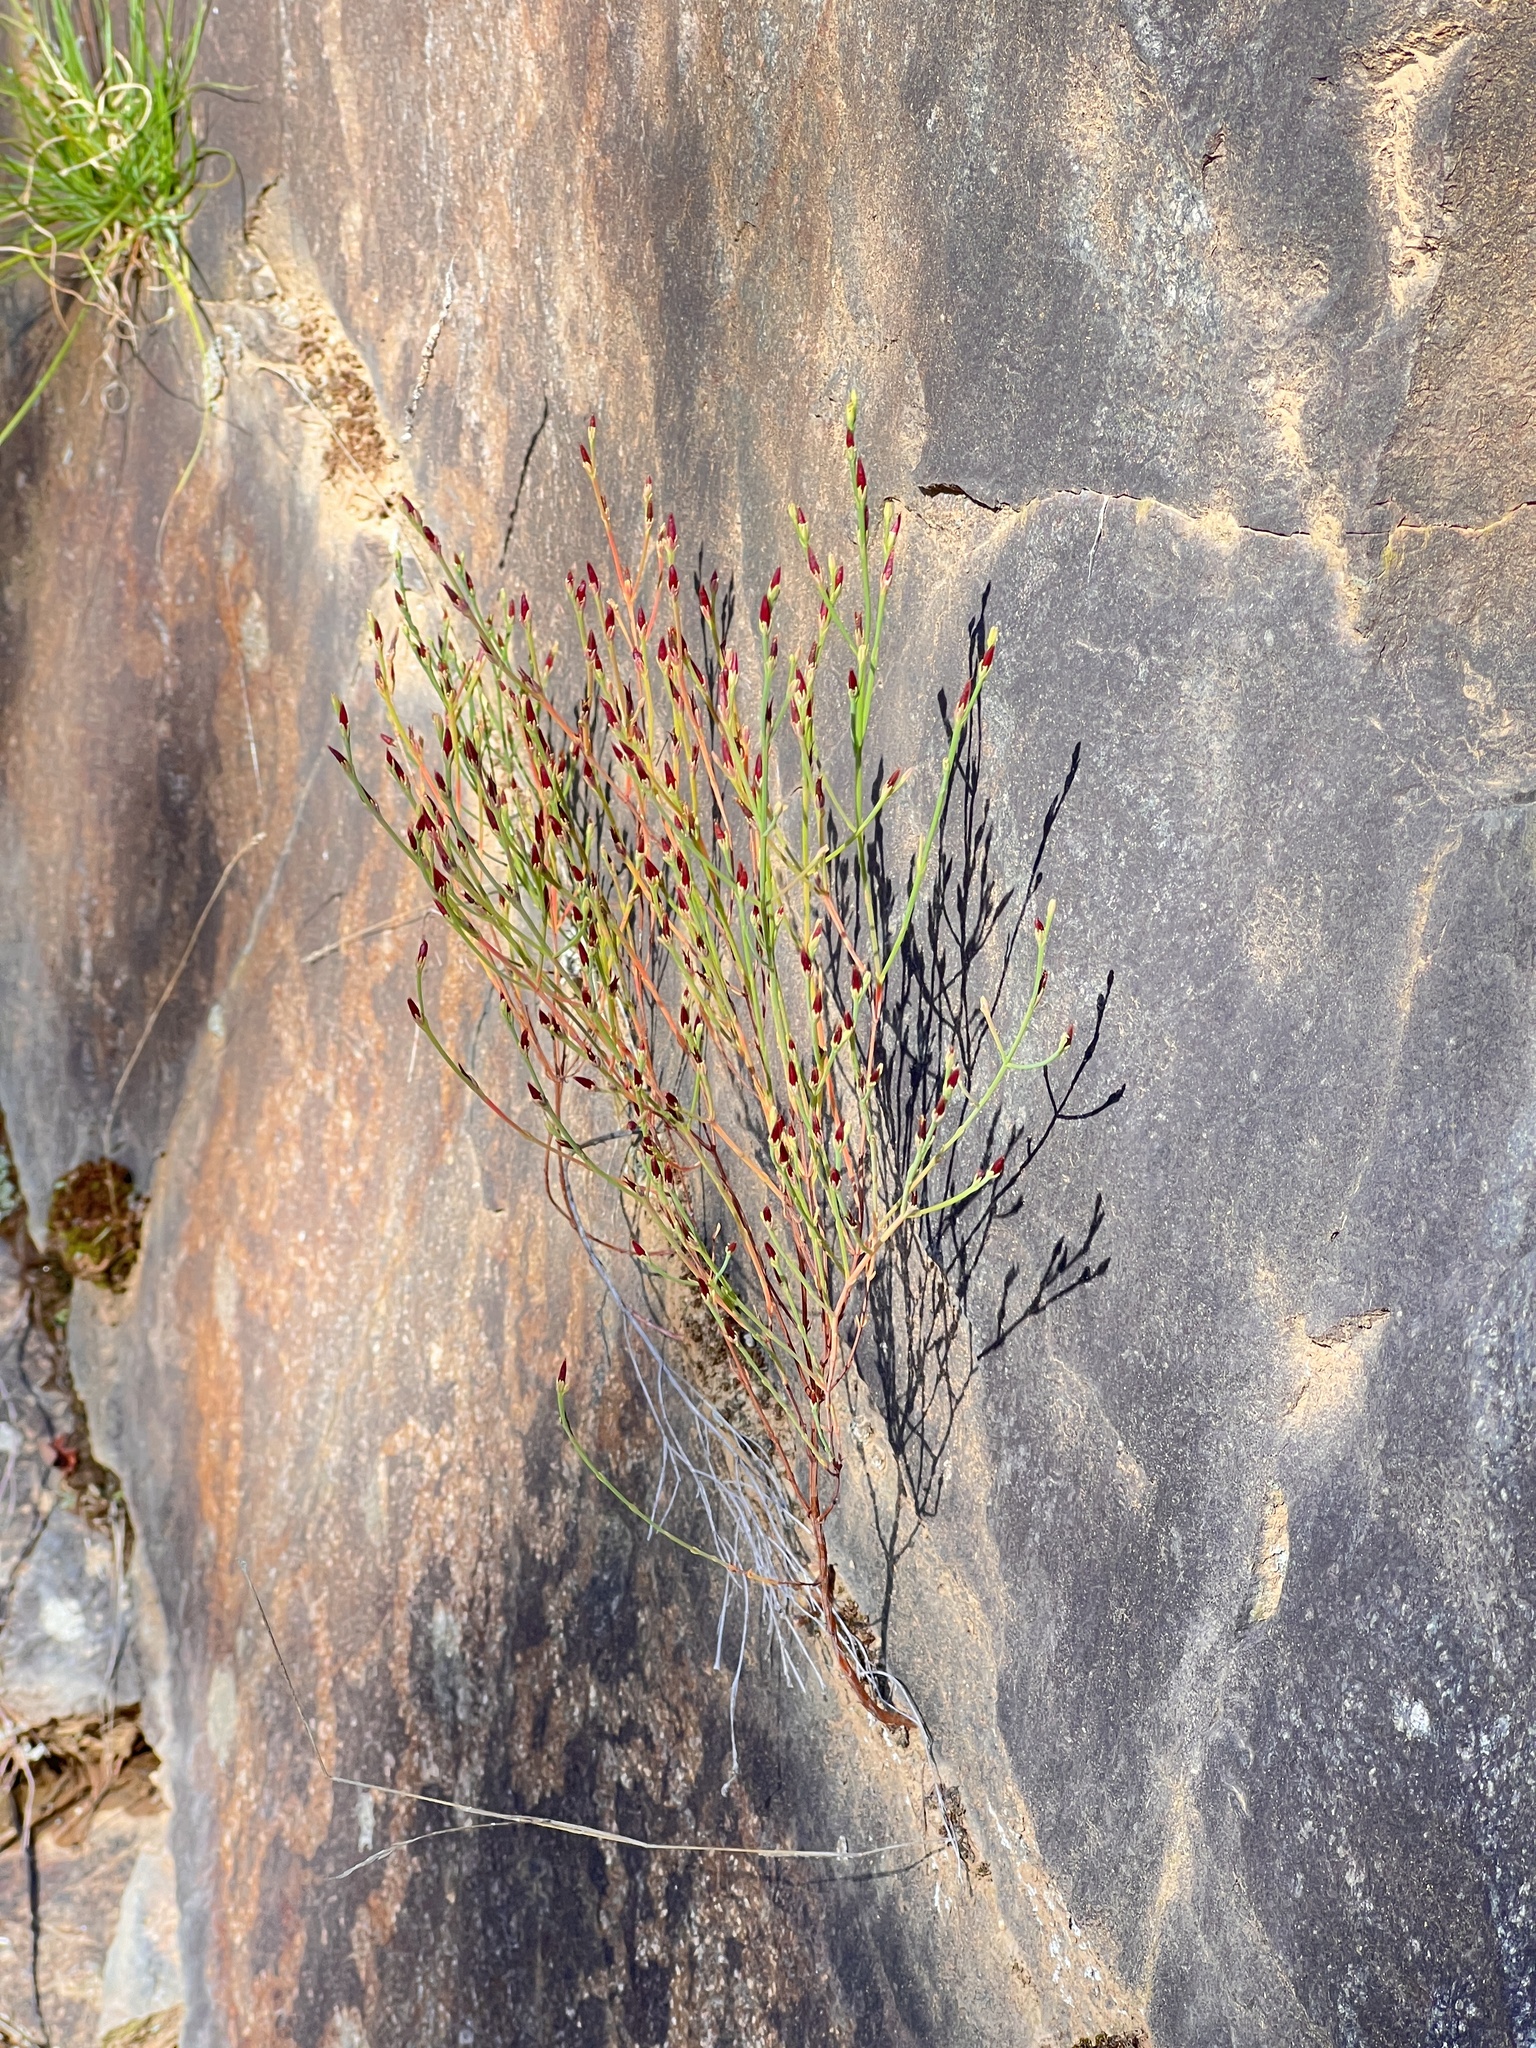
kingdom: Plantae
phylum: Tracheophyta
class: Magnoliopsida
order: Malpighiales
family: Hypericaceae
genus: Hypericum
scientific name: Hypericum gentianoides
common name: Gentian-leaved st. john's-wort
